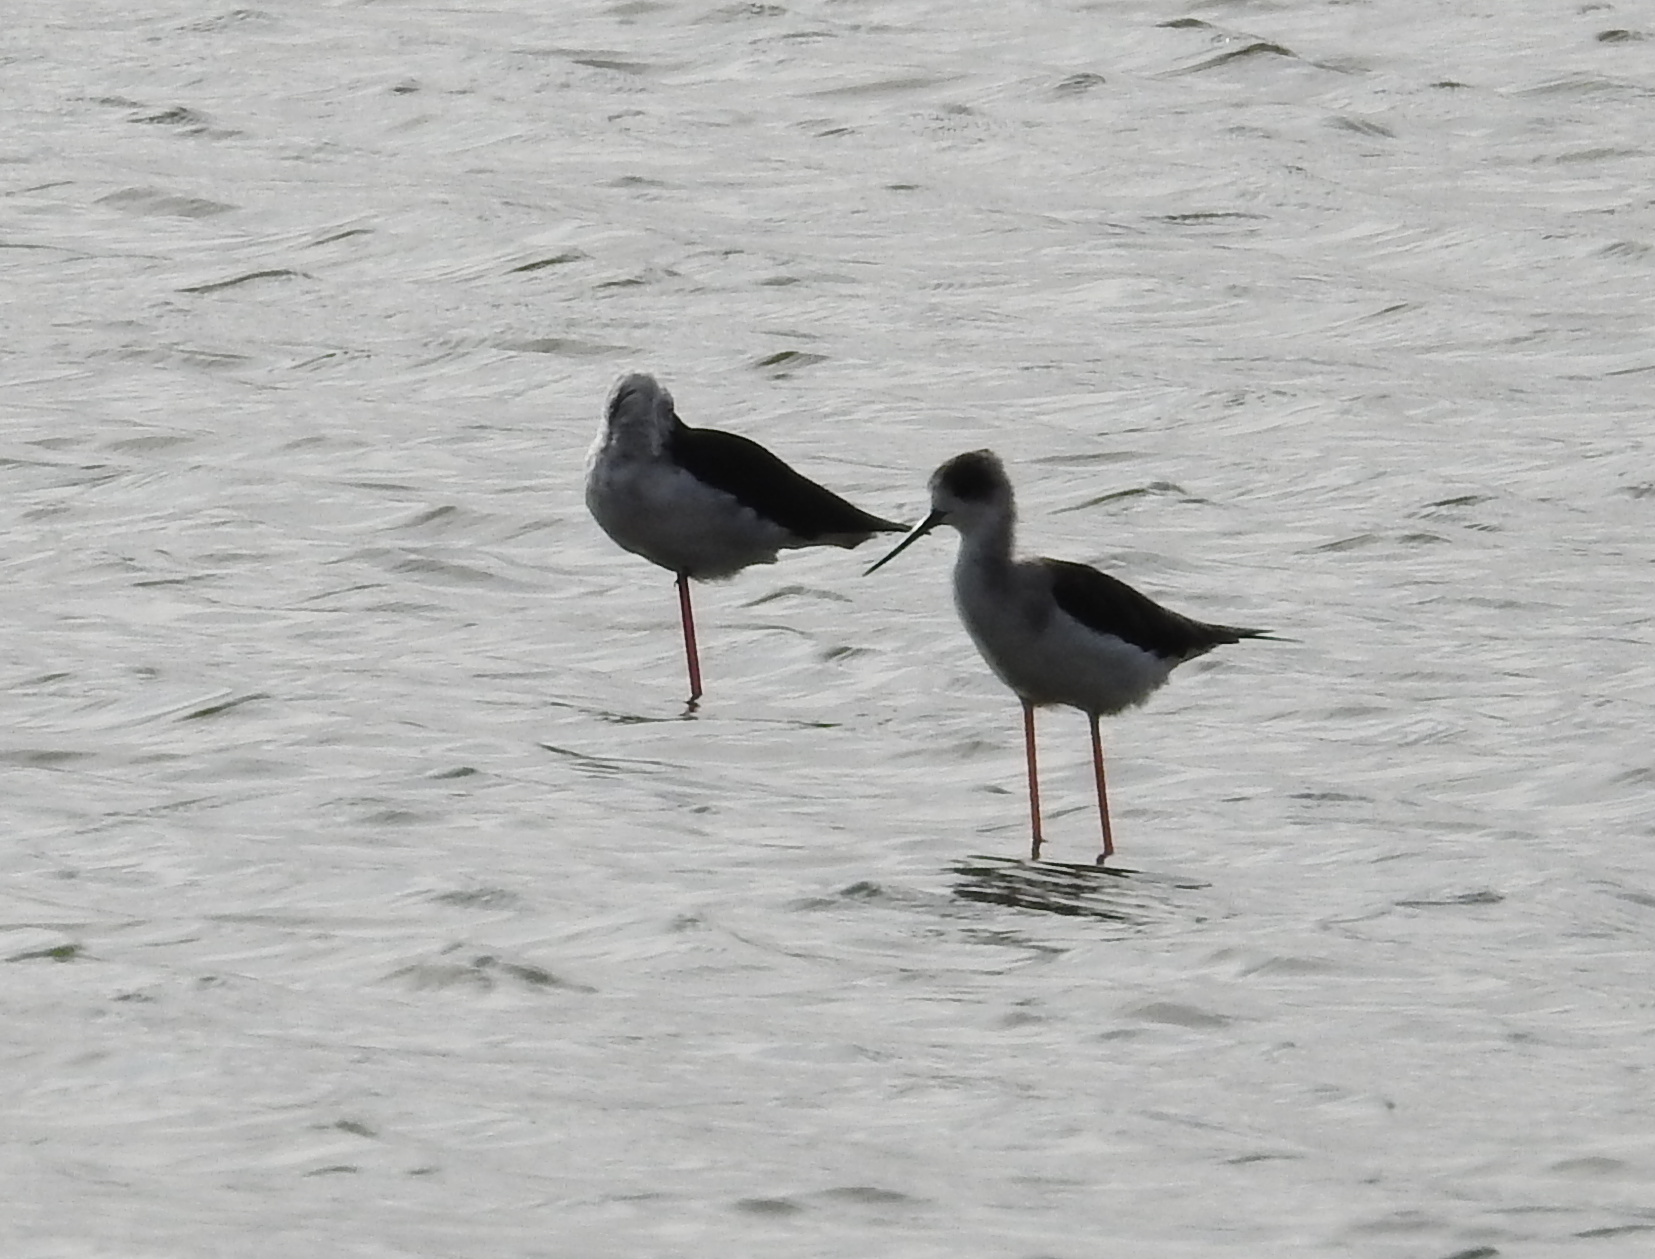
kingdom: Animalia
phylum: Chordata
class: Aves
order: Charadriiformes
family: Recurvirostridae
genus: Himantopus
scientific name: Himantopus himantopus
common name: Black-winged stilt
